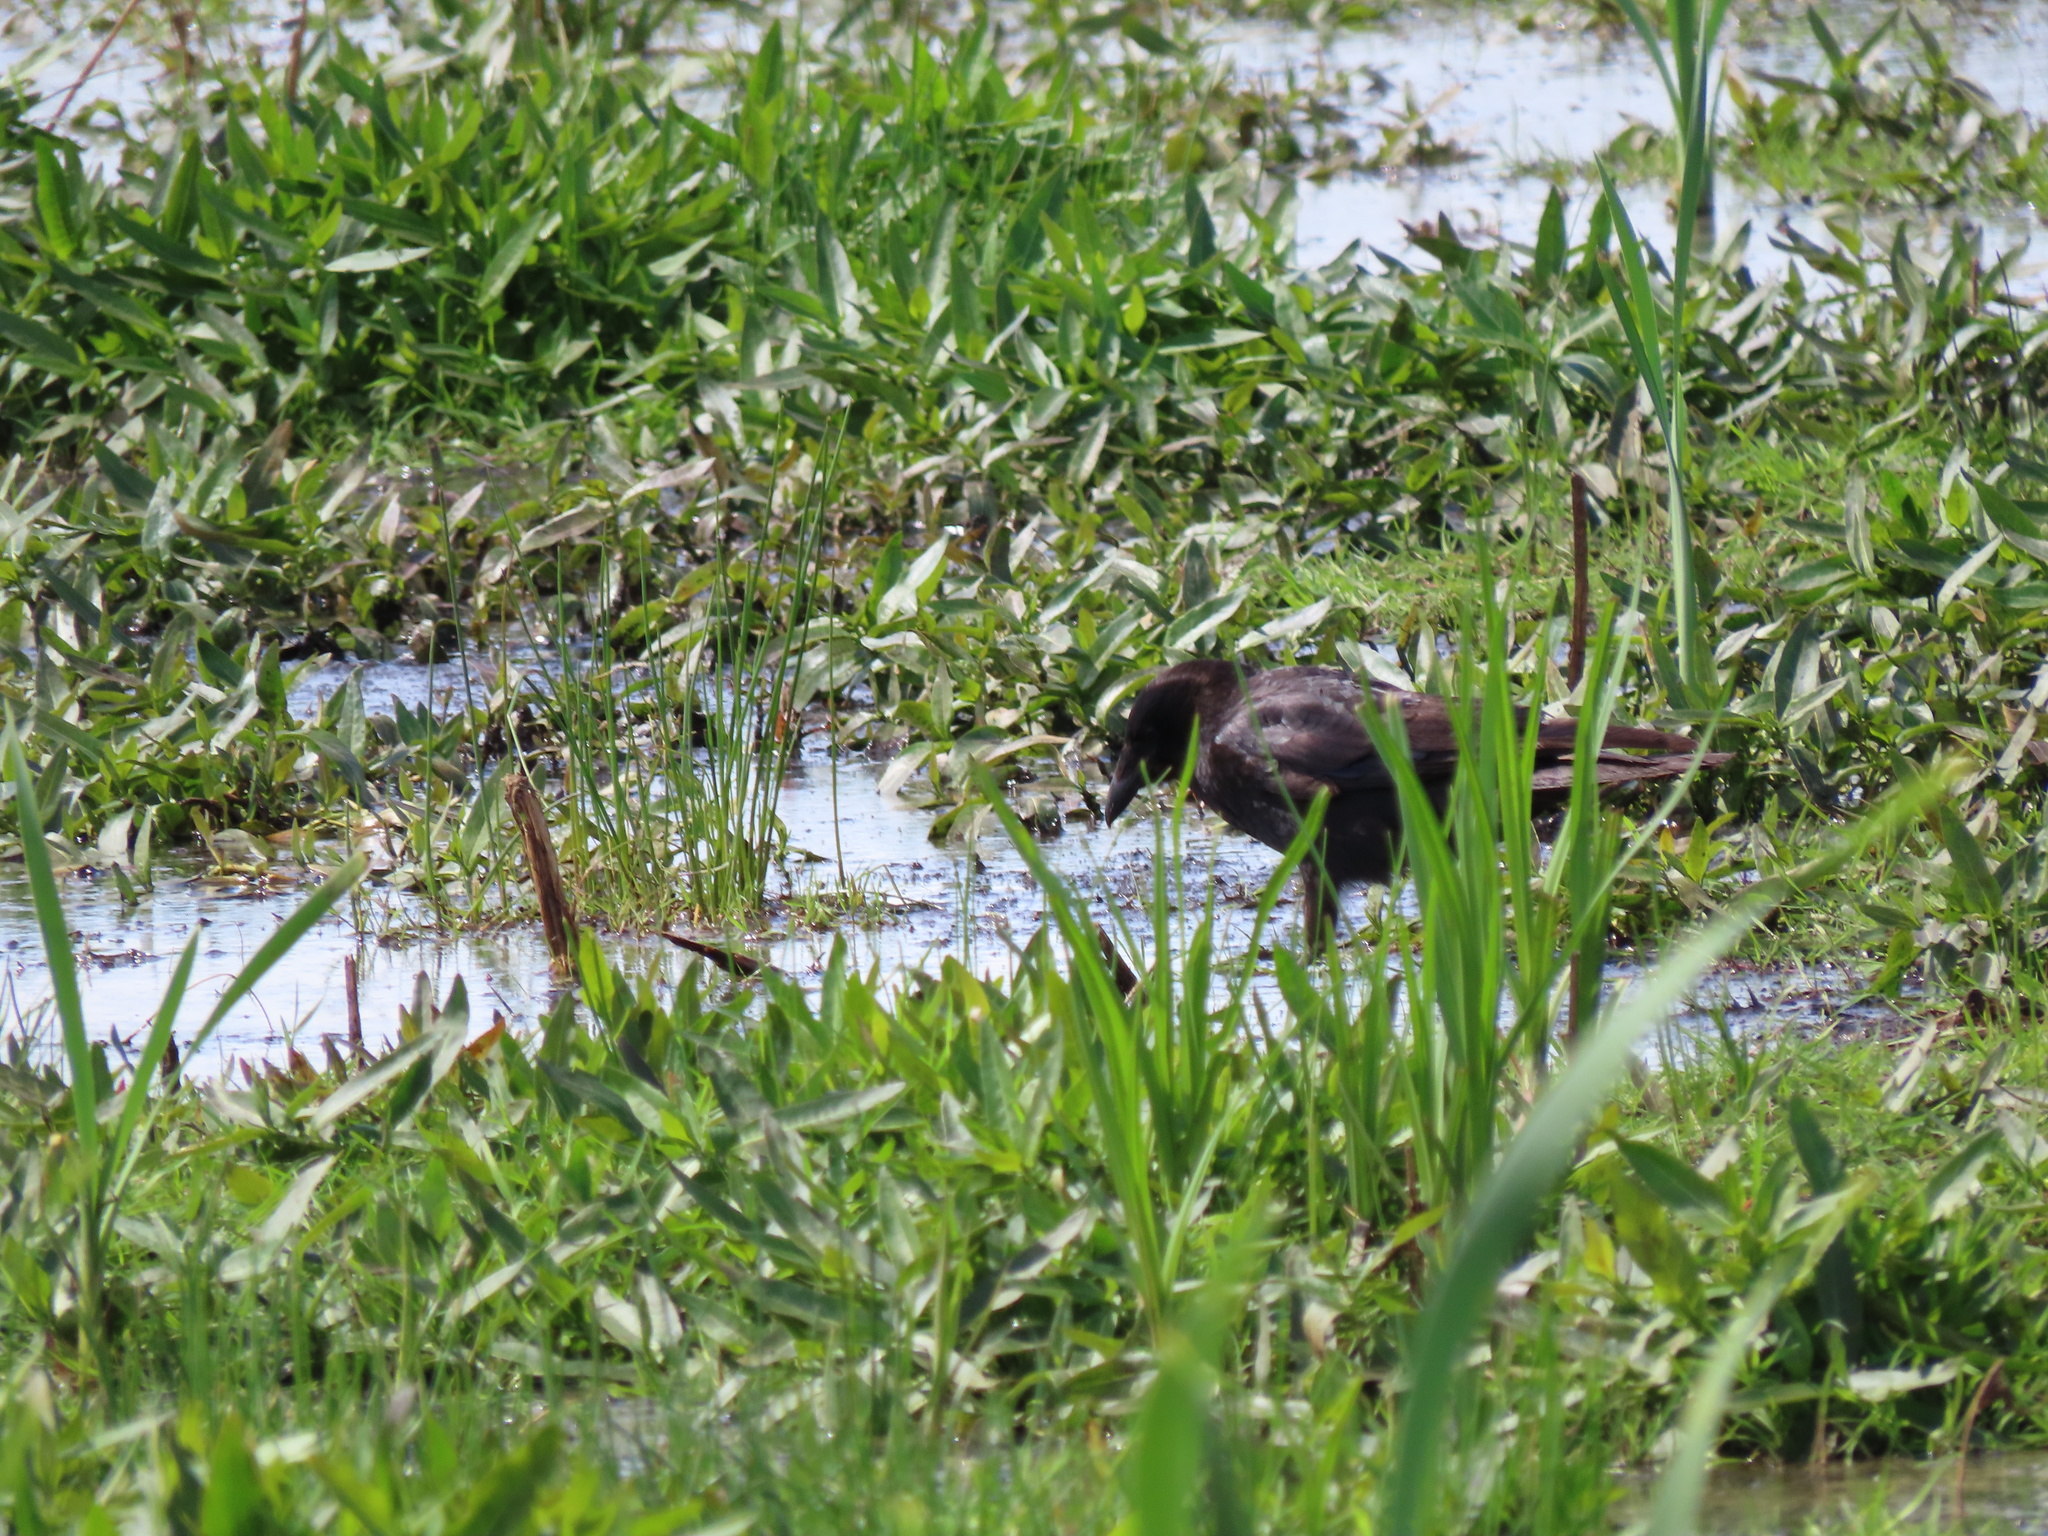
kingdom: Animalia
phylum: Chordata
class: Aves
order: Passeriformes
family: Corvidae
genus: Corvus
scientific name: Corvus brachyrhynchos
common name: American crow
